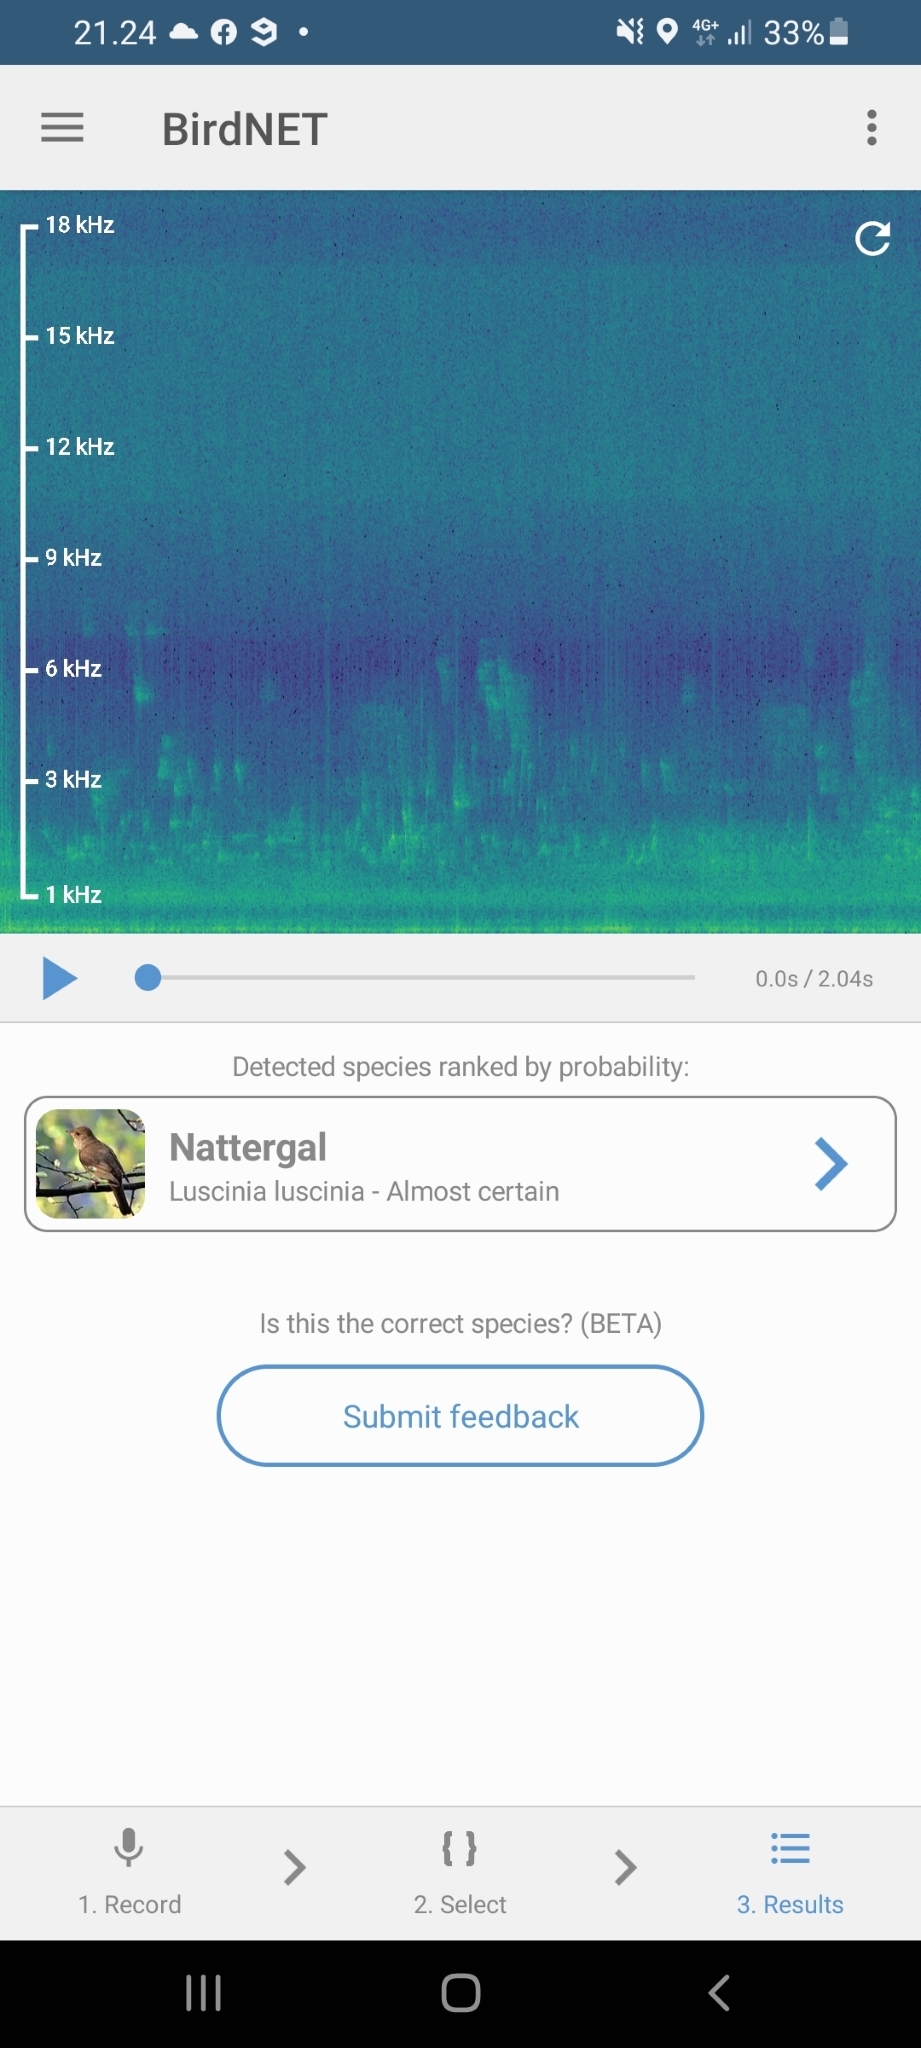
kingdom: Animalia
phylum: Chordata
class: Aves
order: Passeriformes
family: Muscicapidae
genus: Luscinia
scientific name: Luscinia luscinia
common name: Thrush nightingale
